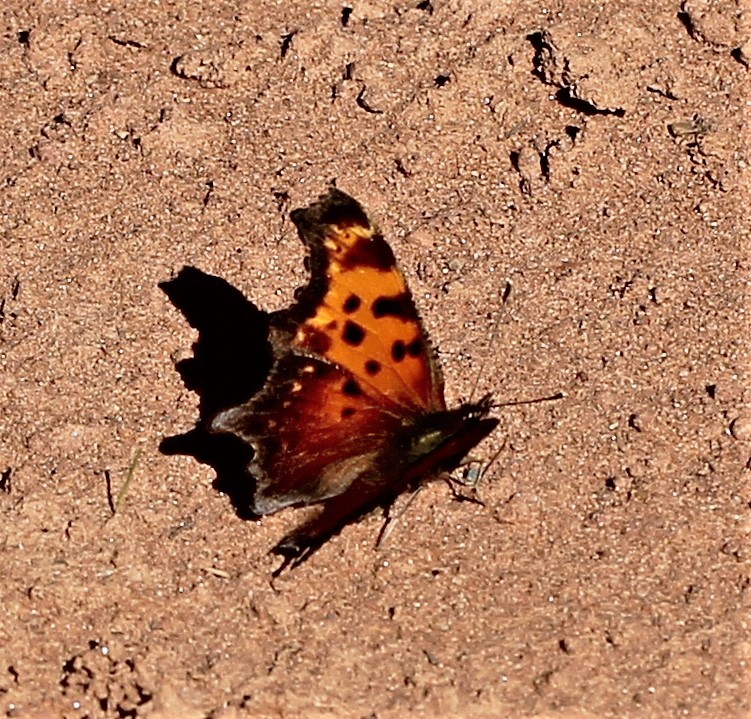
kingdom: Animalia
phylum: Arthropoda
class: Insecta
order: Lepidoptera
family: Nymphalidae
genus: Polygonia
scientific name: Polygonia progne
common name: Gray comma
